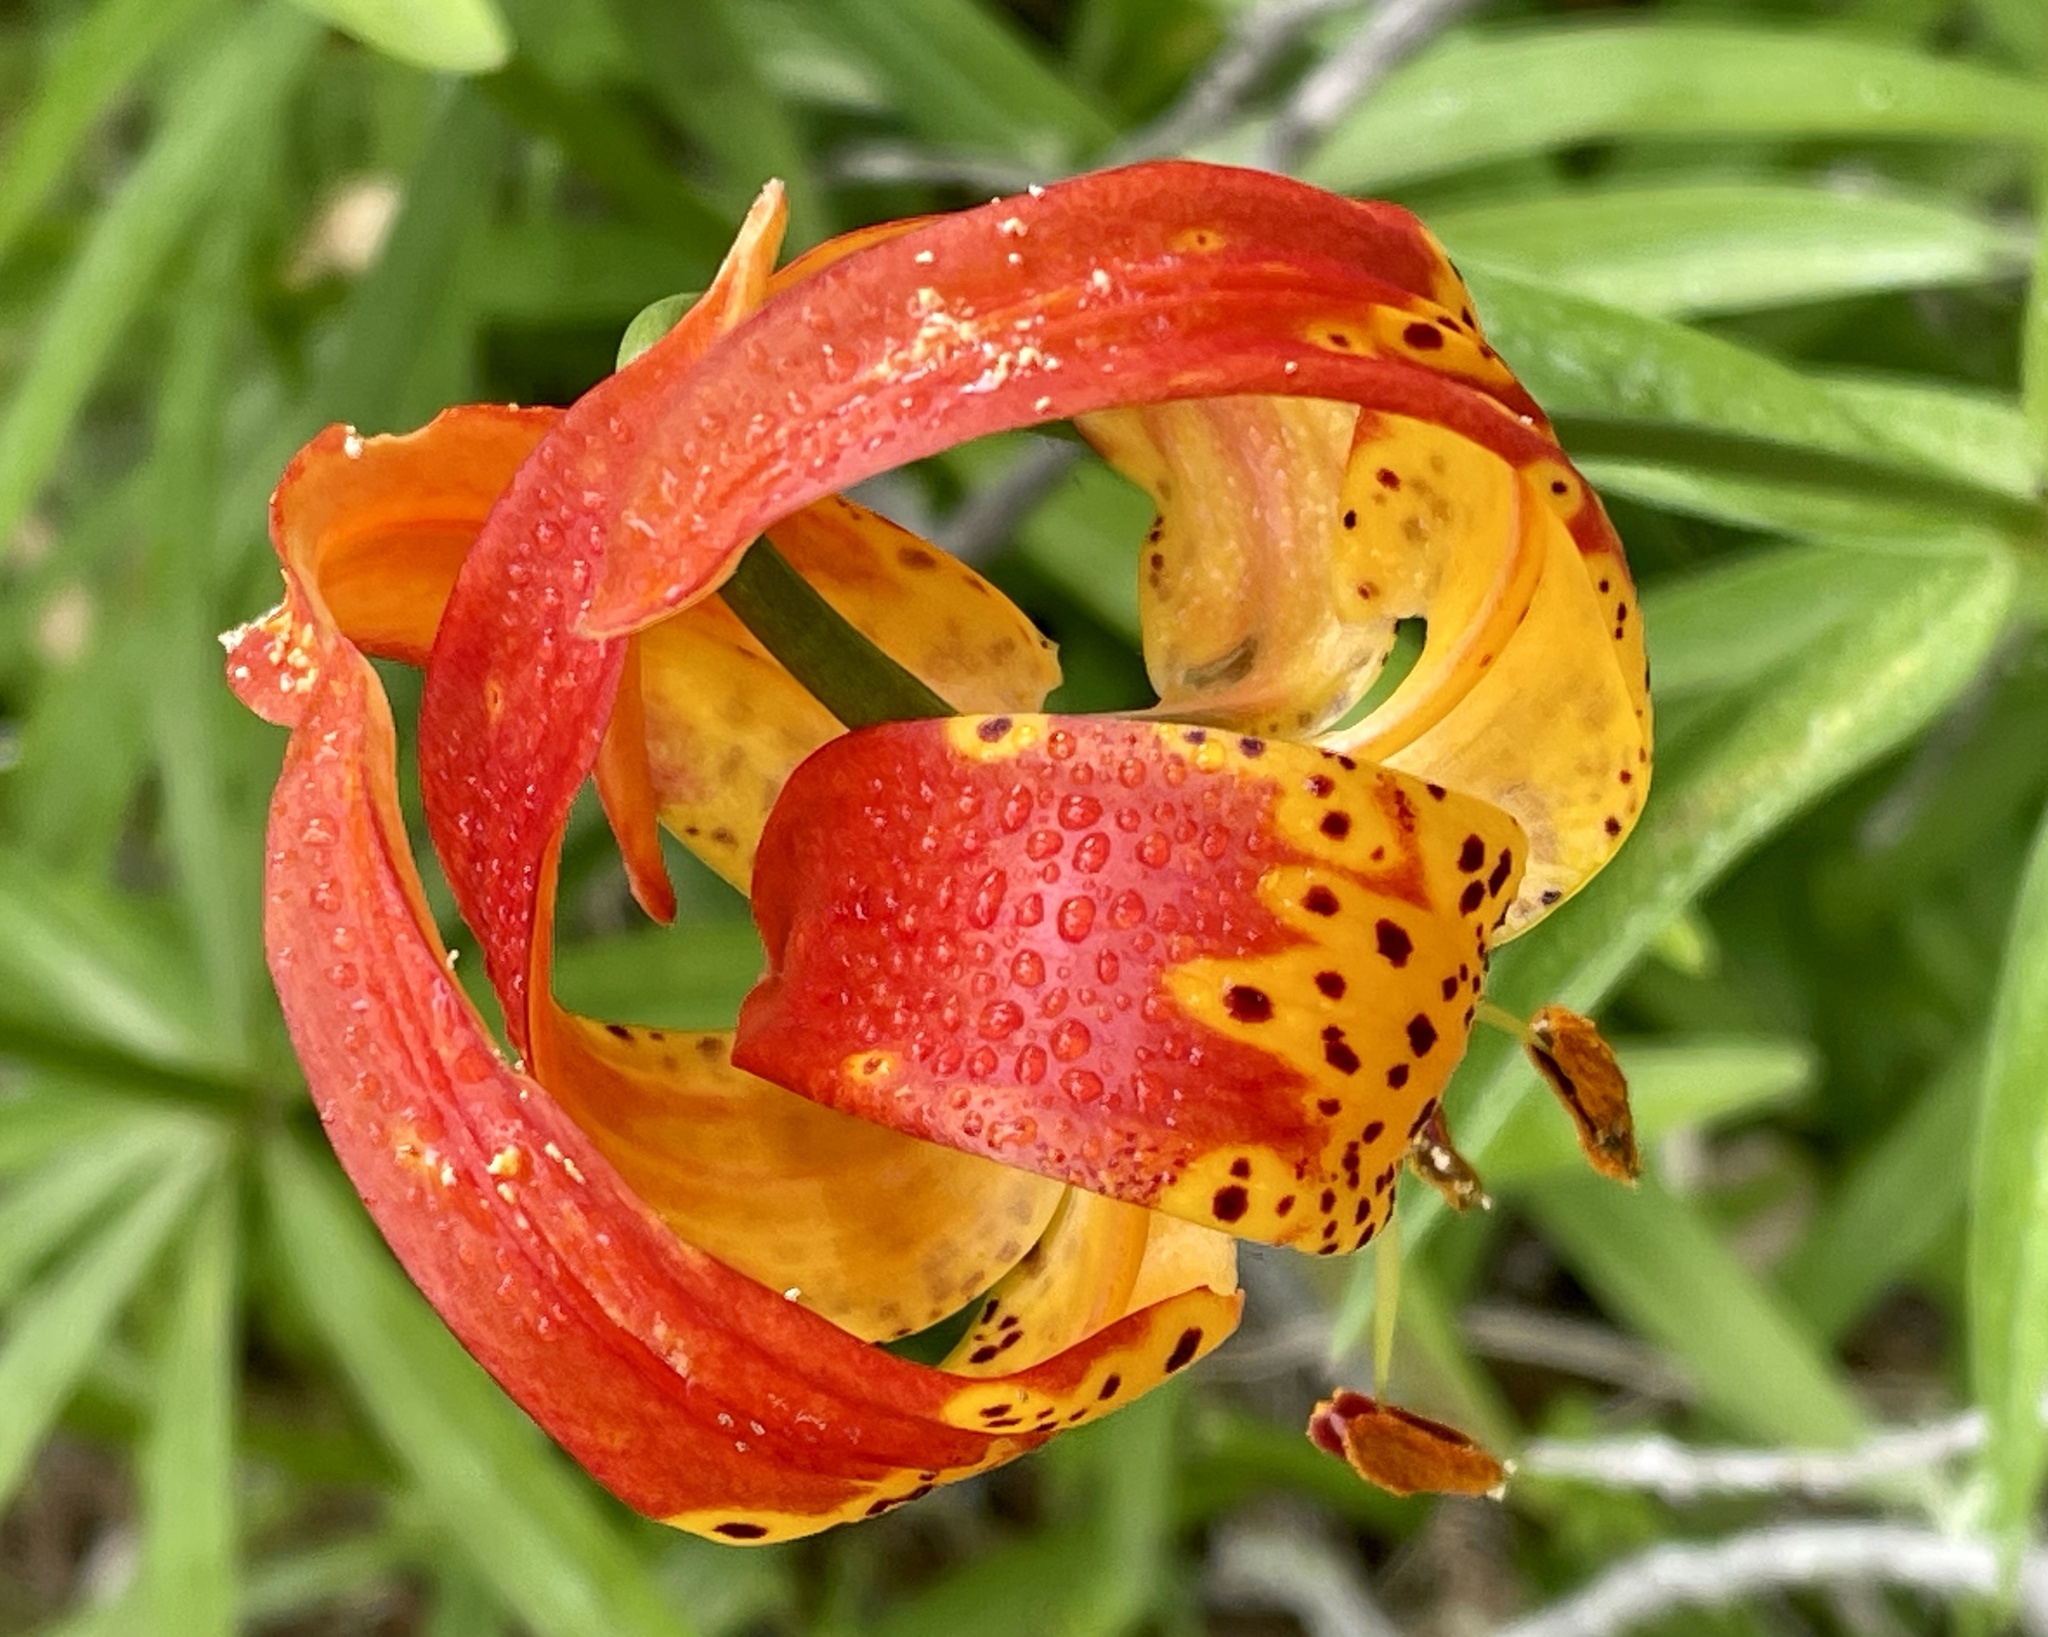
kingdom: Plantae
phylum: Tracheophyta
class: Liliopsida
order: Liliales
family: Liliaceae
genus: Lilium
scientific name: Lilium pardalinum
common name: Panther lily
